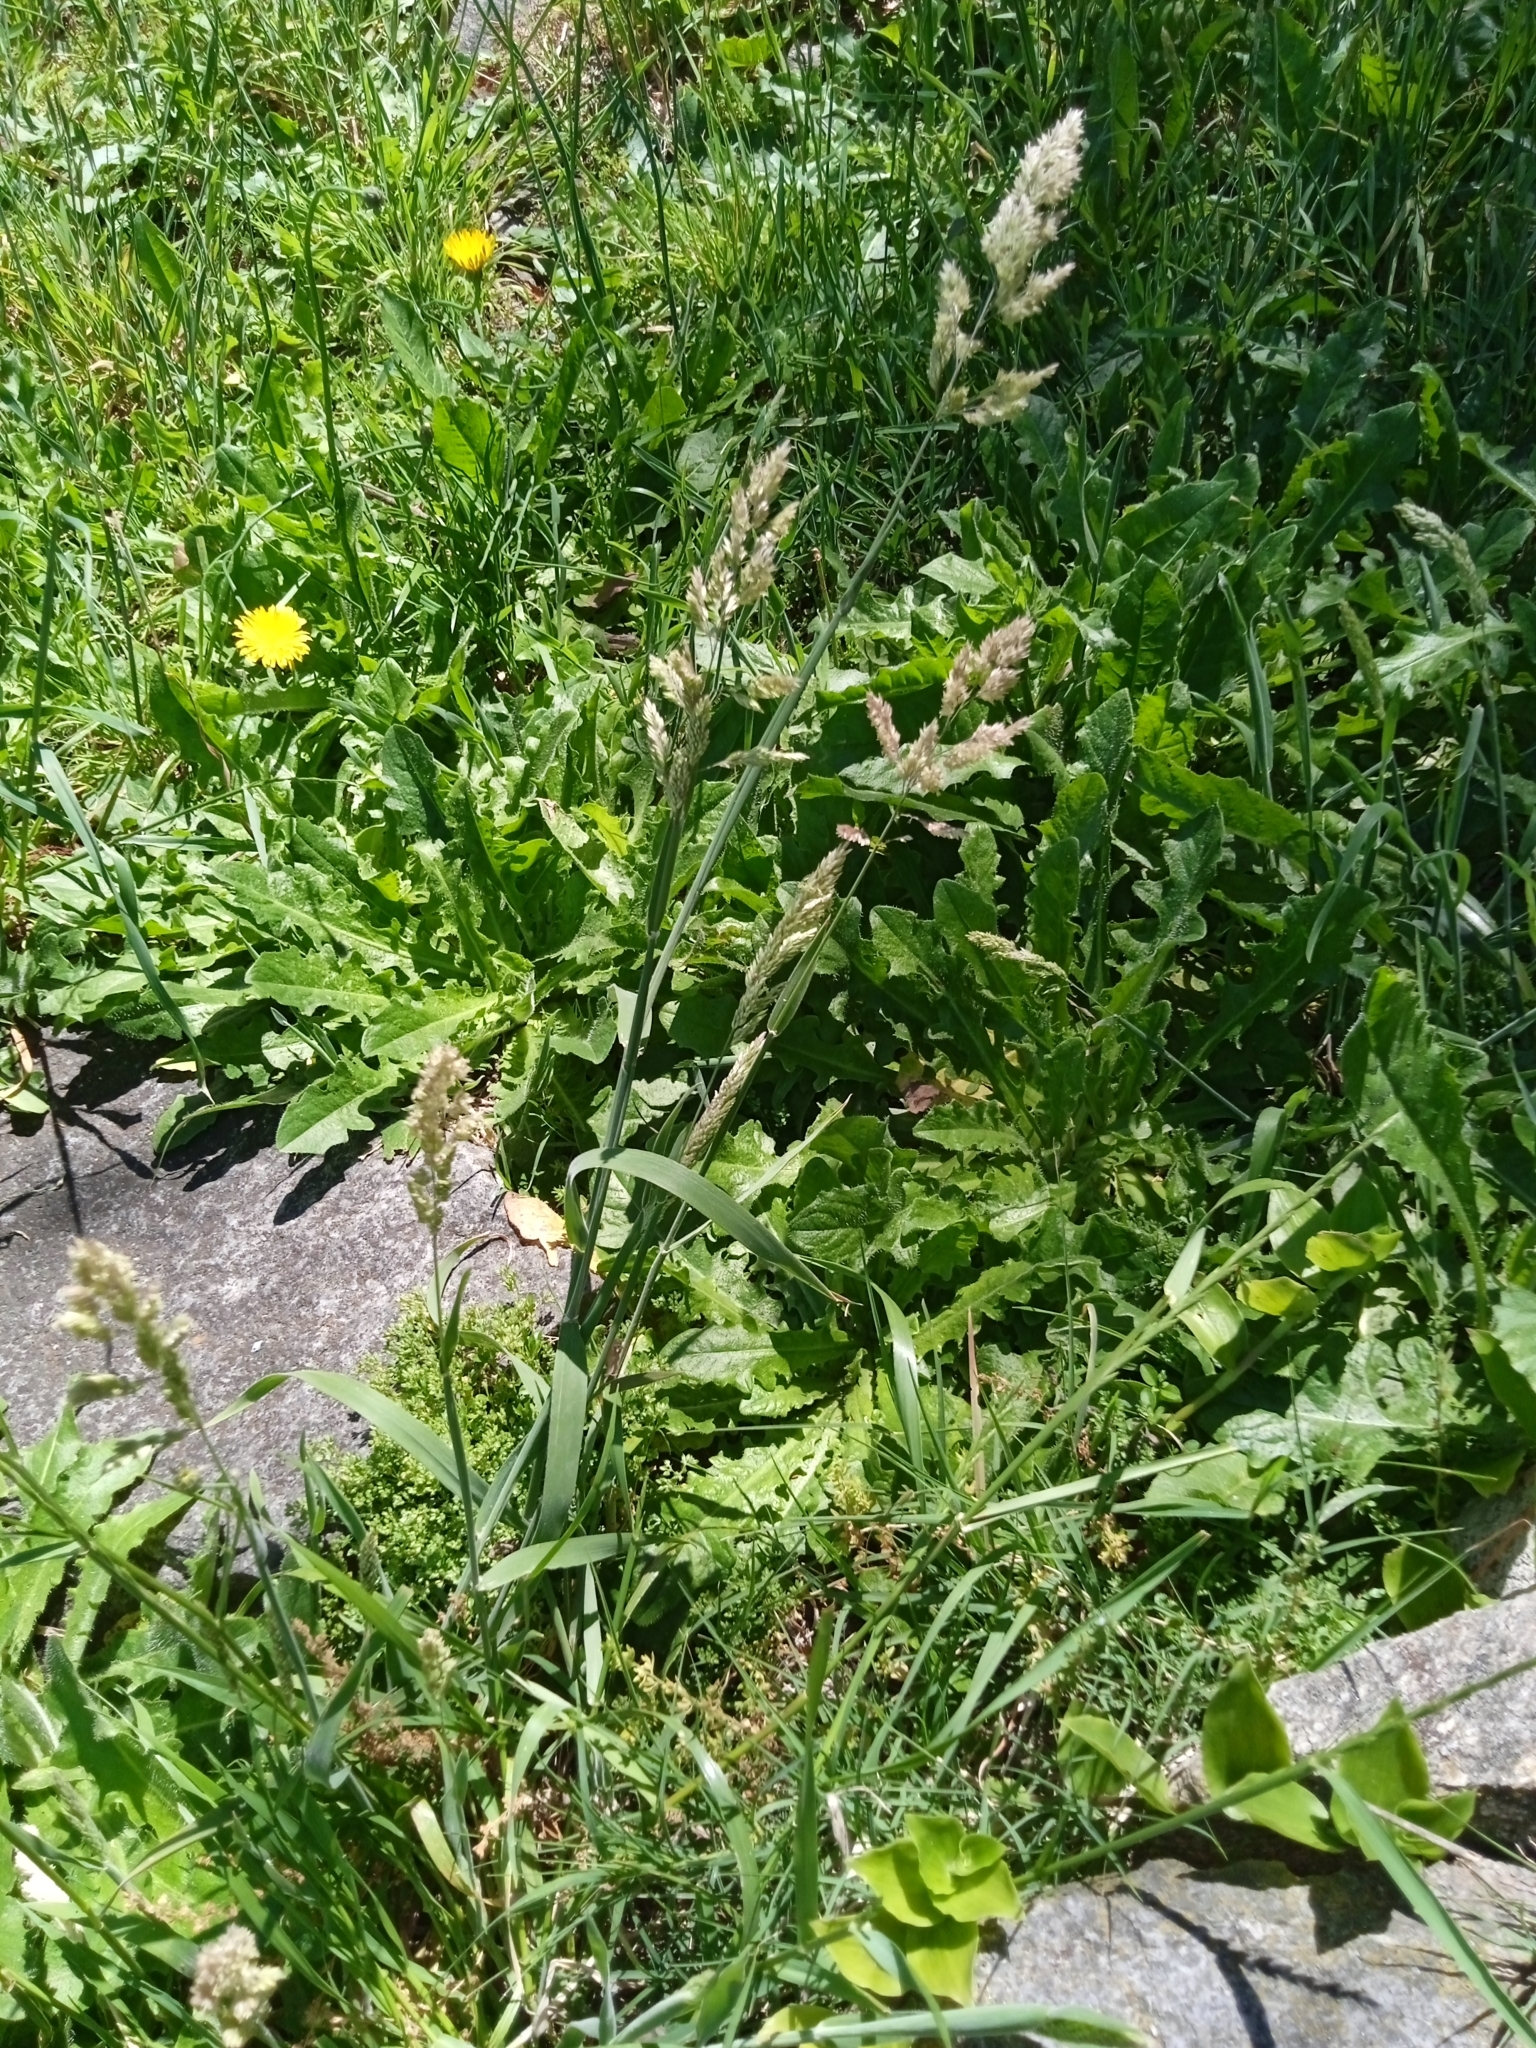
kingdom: Plantae
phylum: Tracheophyta
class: Liliopsida
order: Poales
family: Poaceae
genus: Holcus
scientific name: Holcus lanatus
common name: Yorkshire-fog
